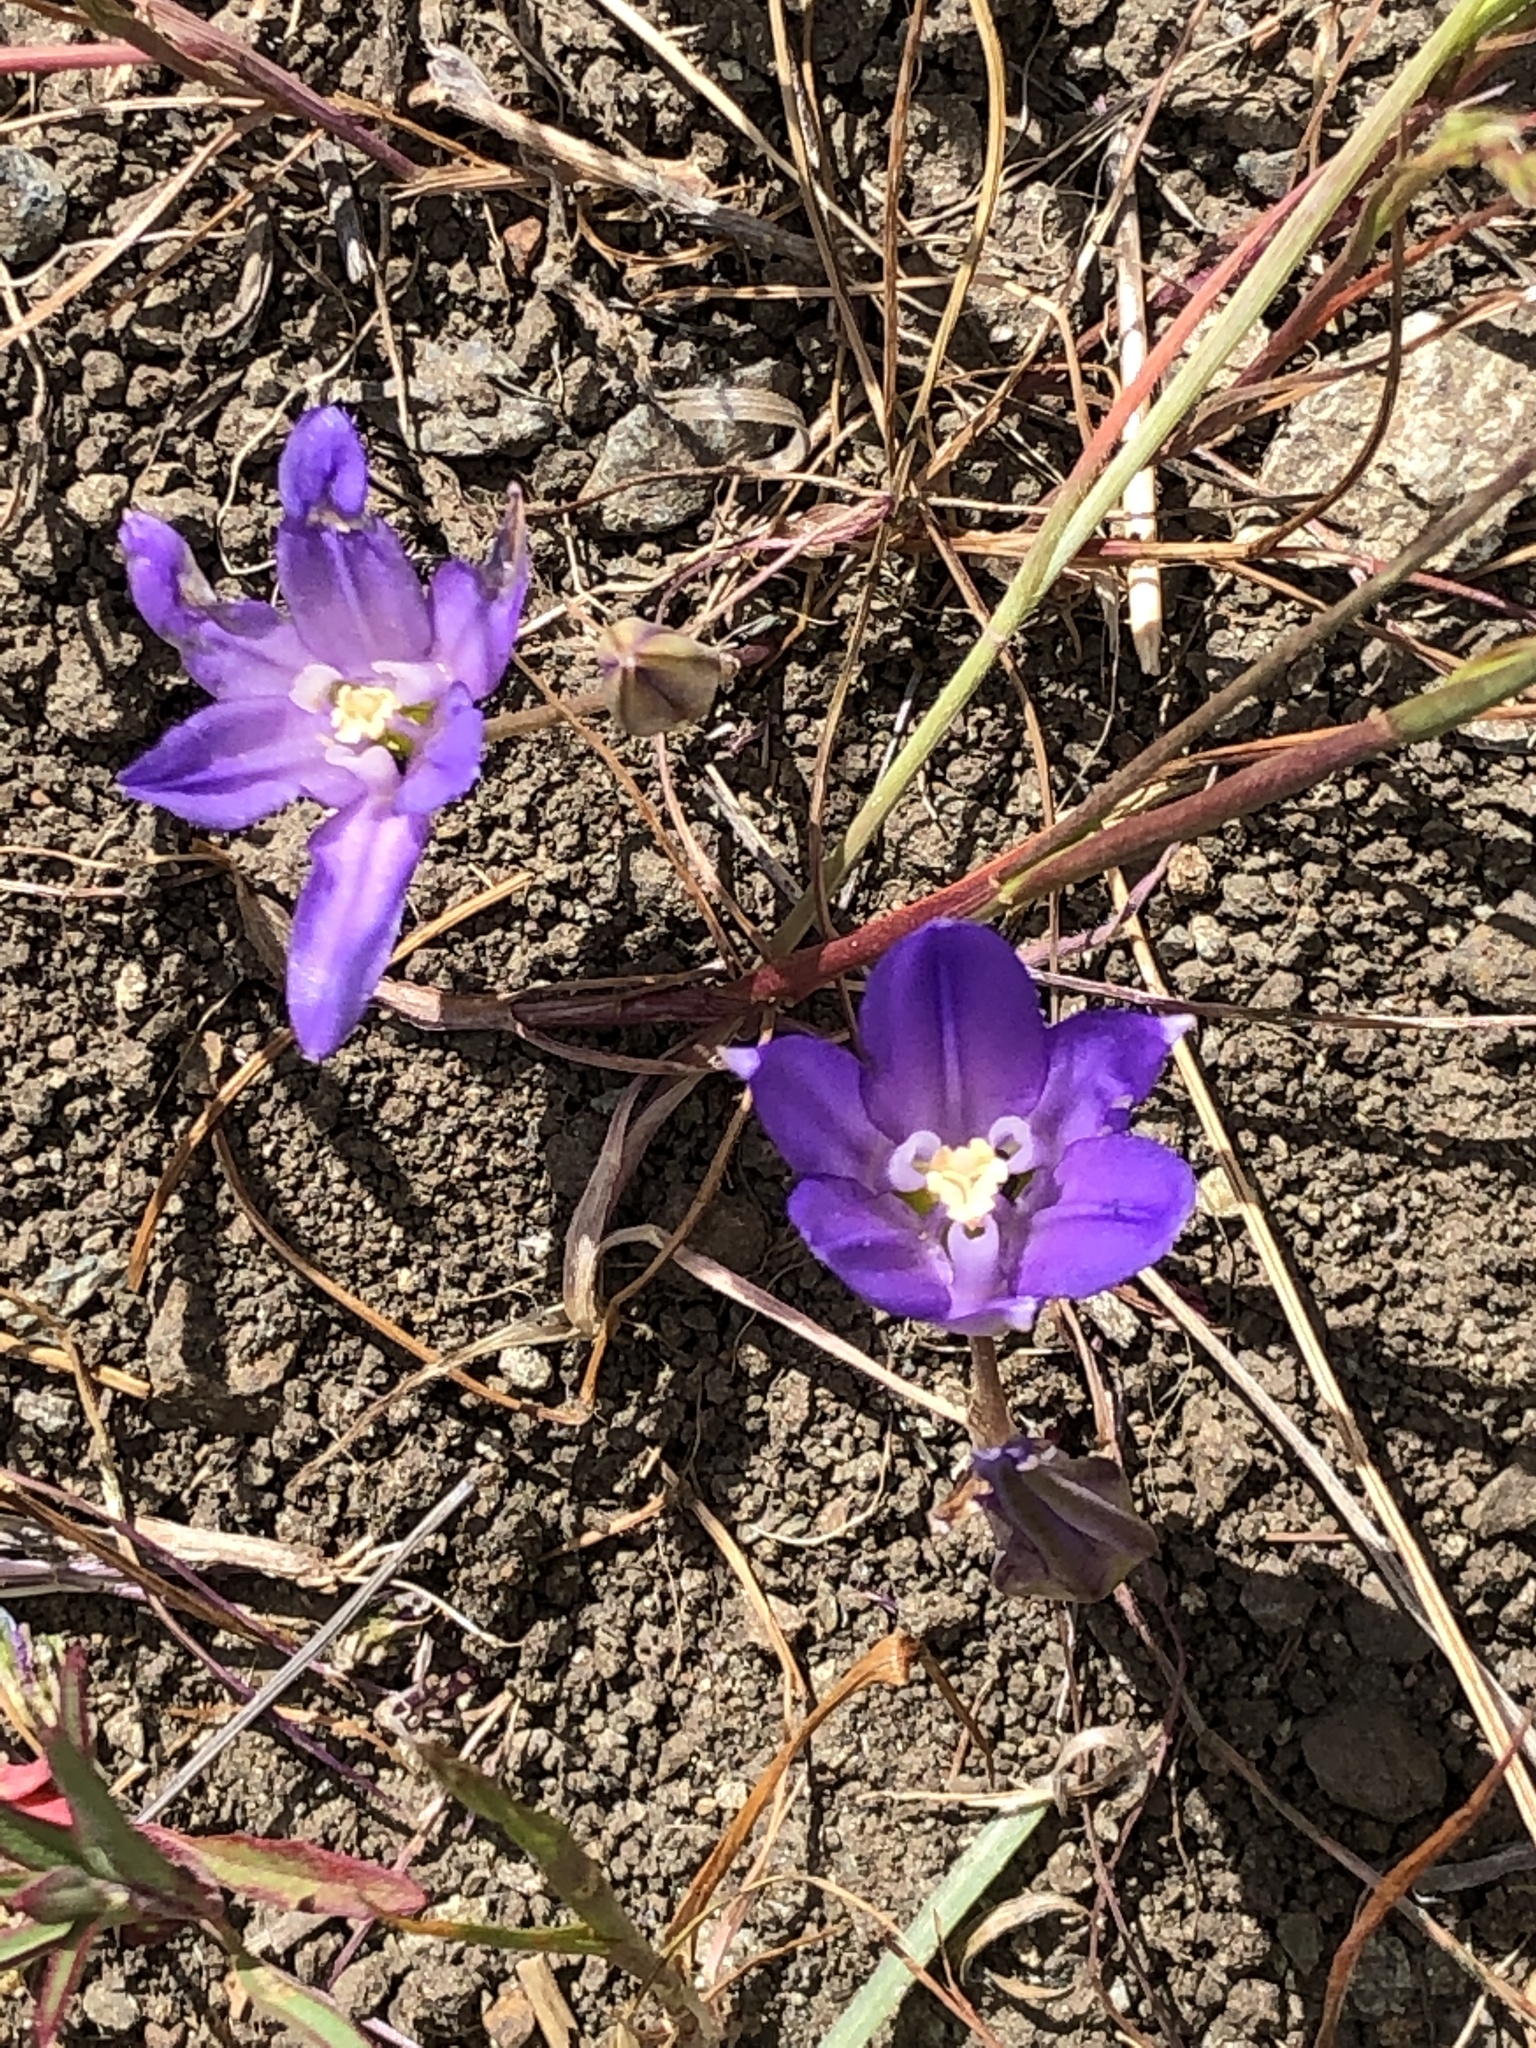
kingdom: Plantae
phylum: Tracheophyta
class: Liliopsida
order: Asparagales
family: Asparagaceae
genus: Brodiaea
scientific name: Brodiaea terrestris
